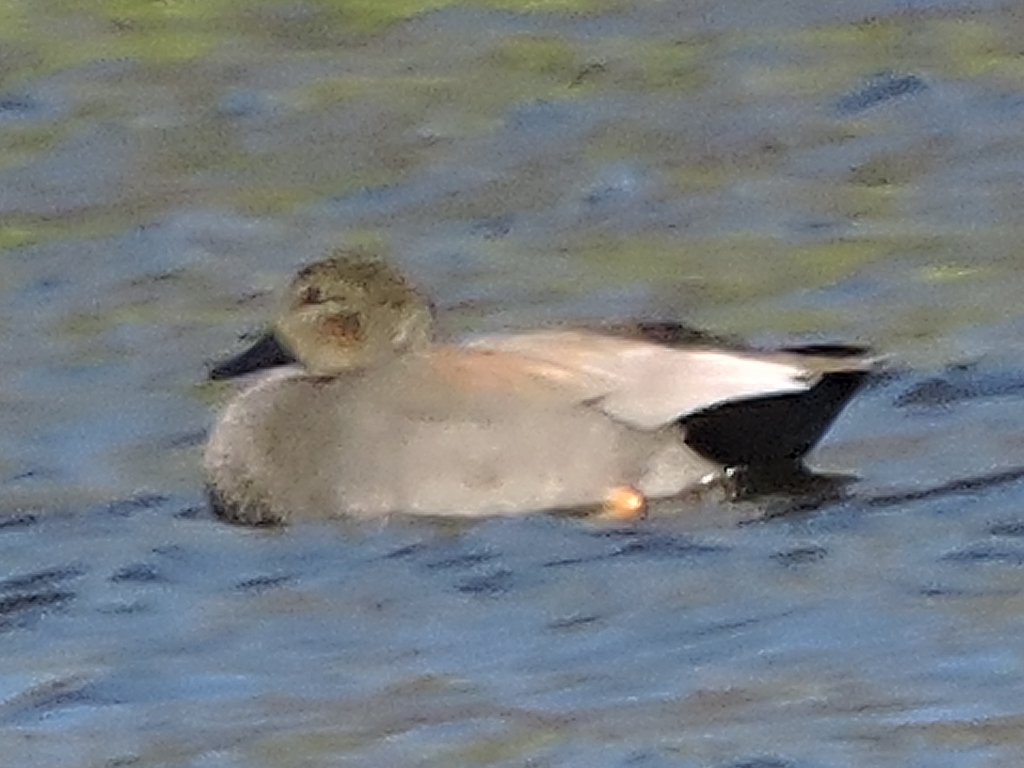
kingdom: Animalia
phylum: Chordata
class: Aves
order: Anseriformes
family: Anatidae
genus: Mareca
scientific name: Mareca strepera
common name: Gadwall
